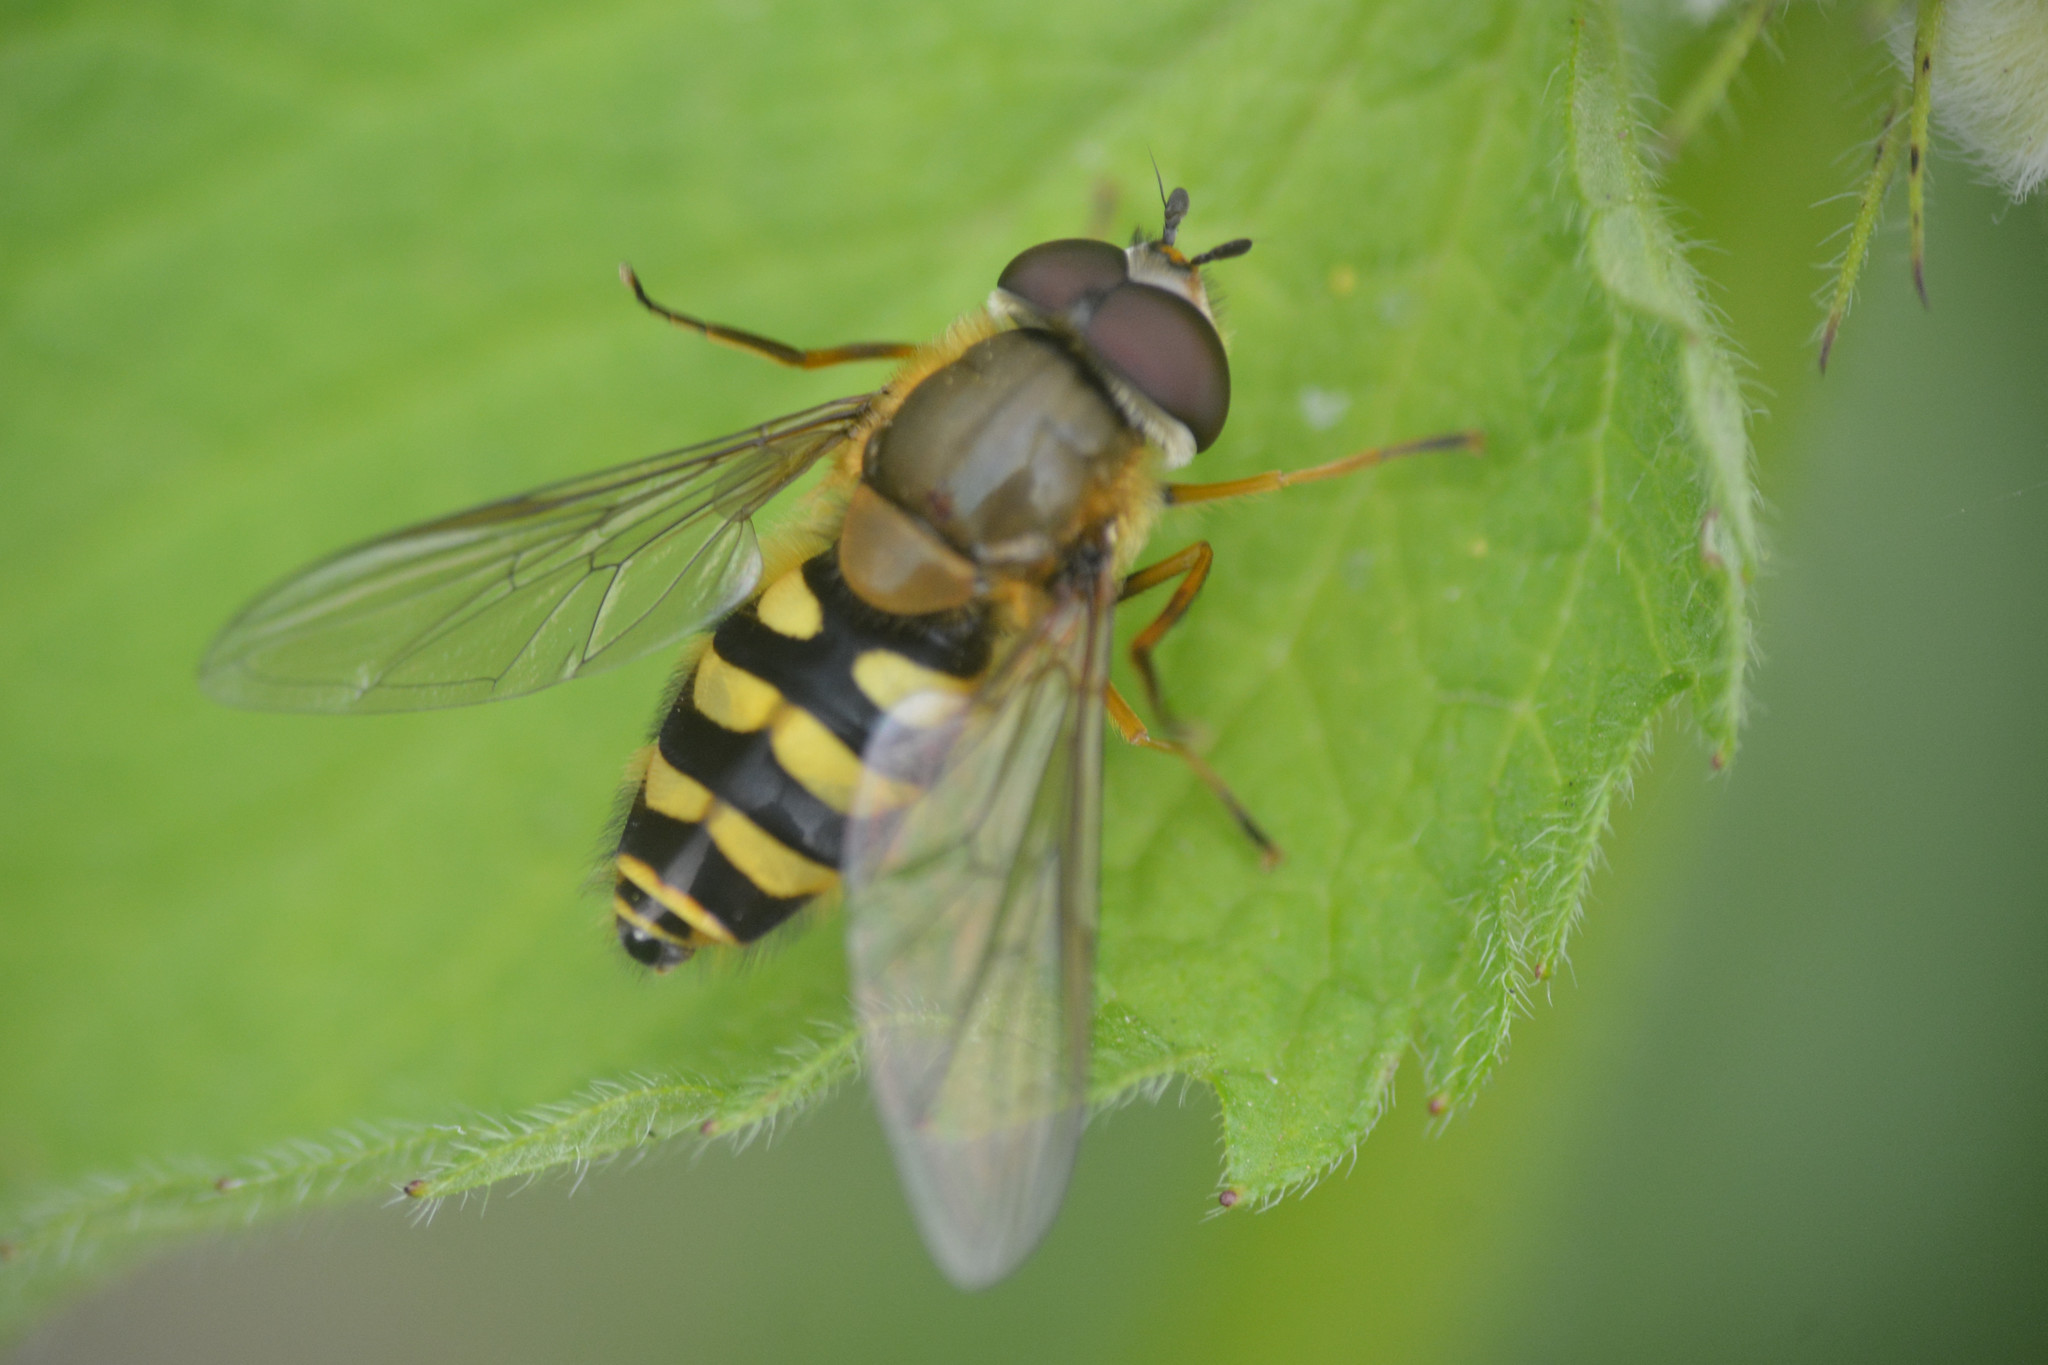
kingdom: Animalia
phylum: Arthropoda
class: Insecta
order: Diptera
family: Syrphidae
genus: Syrphus
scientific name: Syrphus
